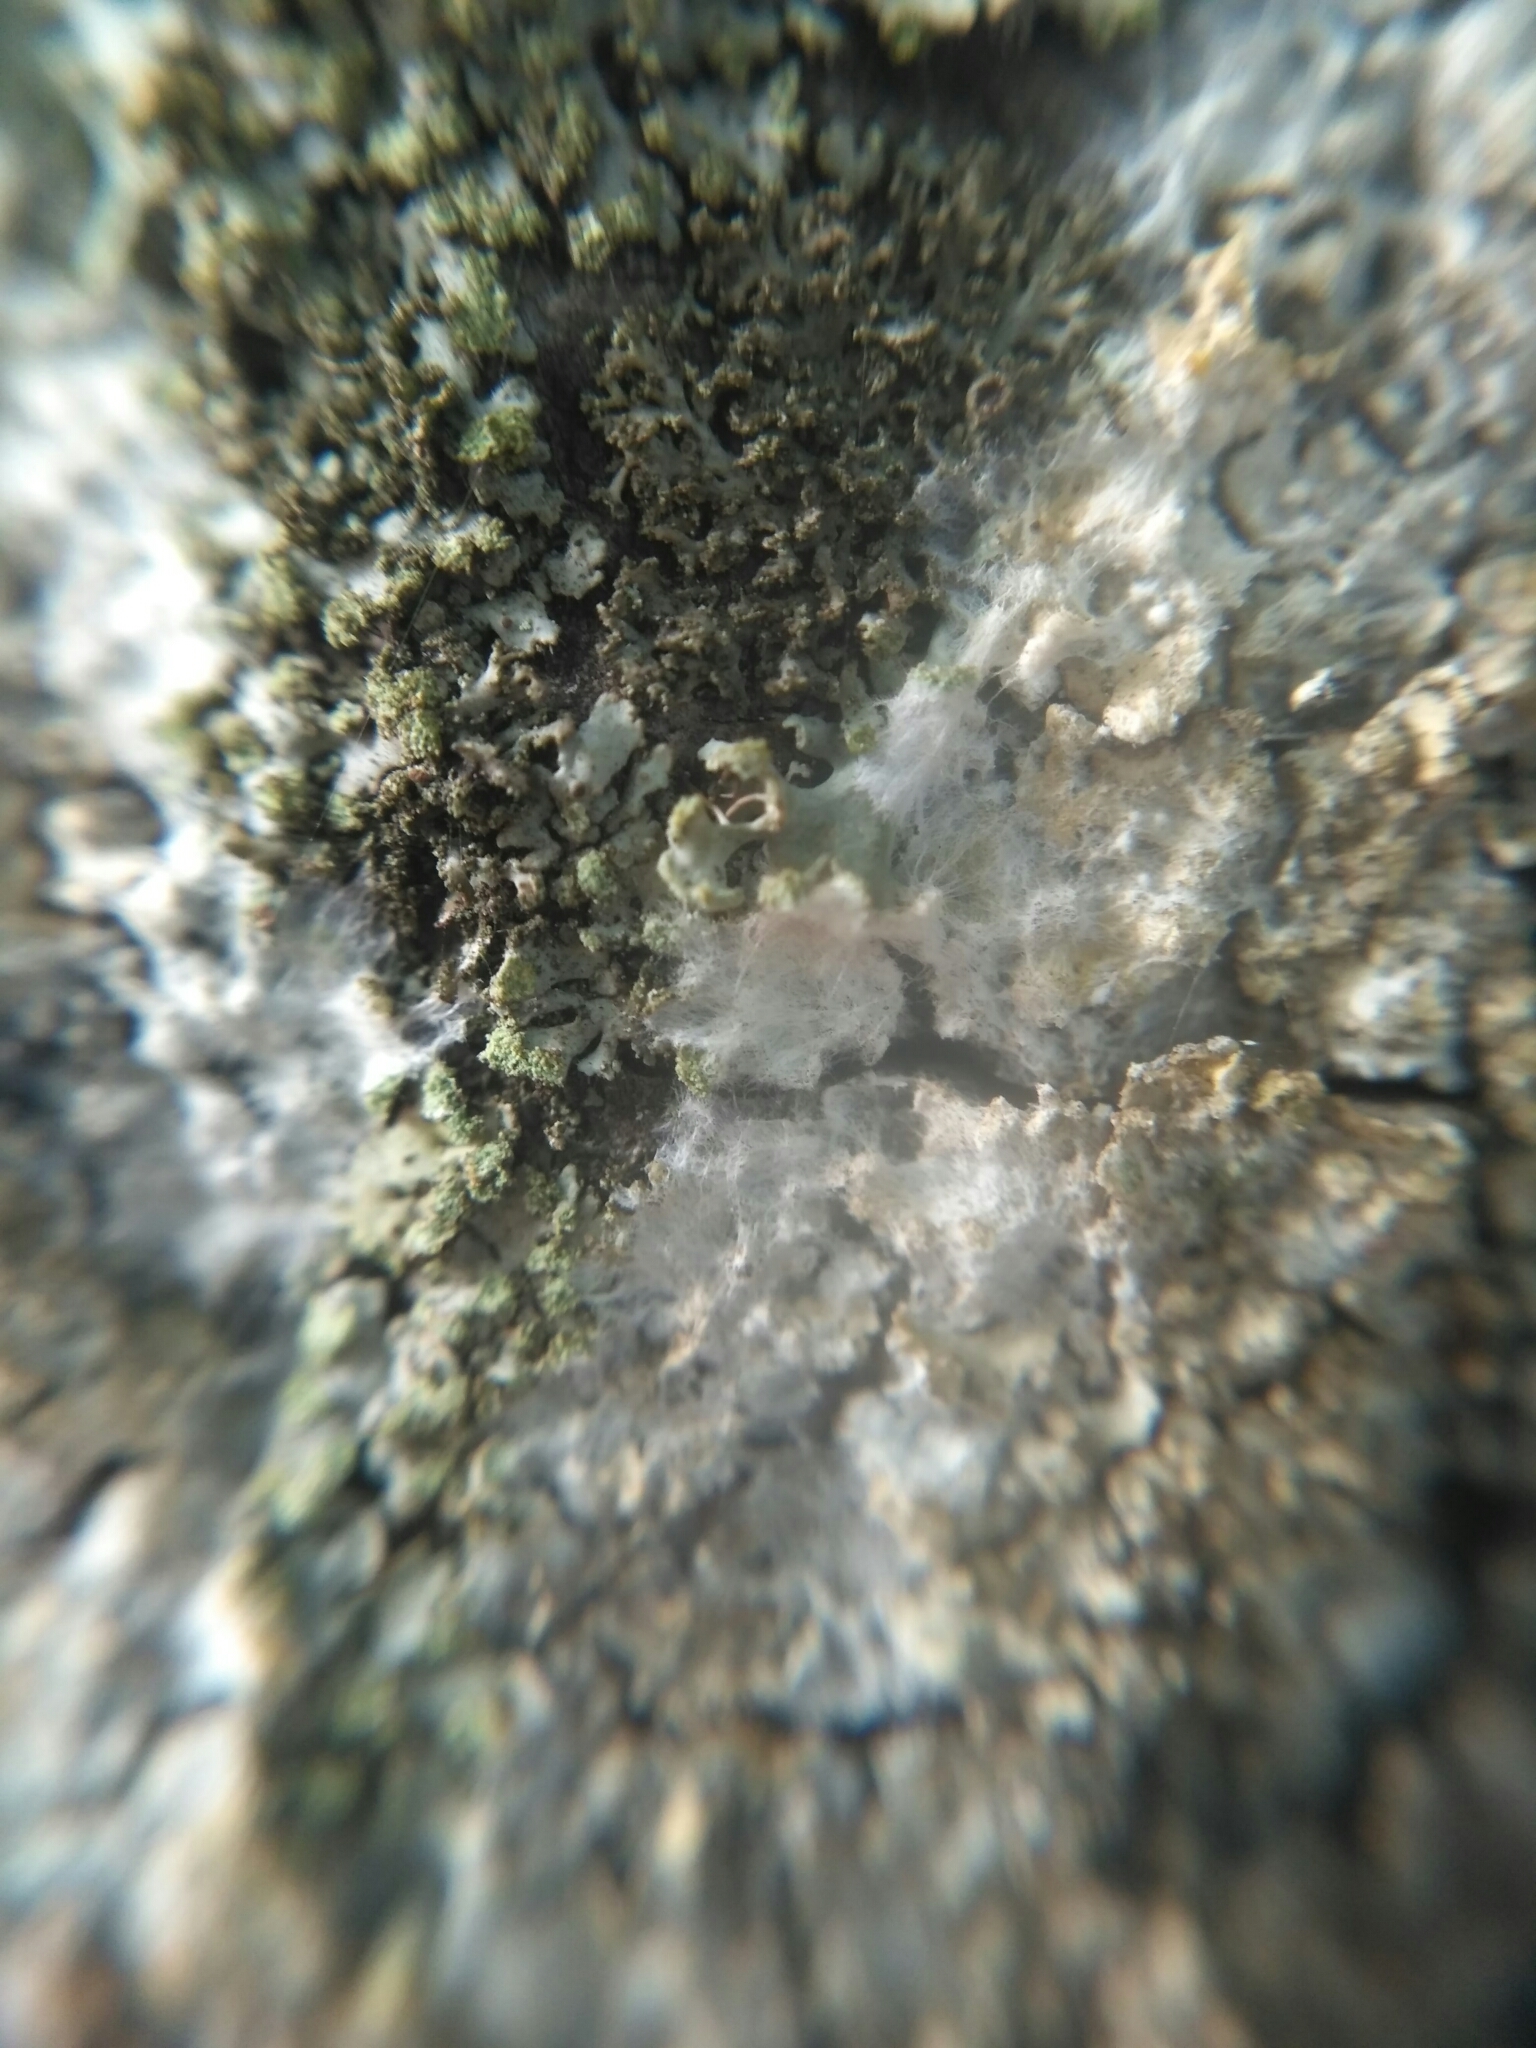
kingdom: Fungi
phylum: Basidiomycota
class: Agaricomycetes
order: Atheliales
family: Atheliaceae
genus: Athelia
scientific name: Athelia arachnoidea
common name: Candelabra duster
